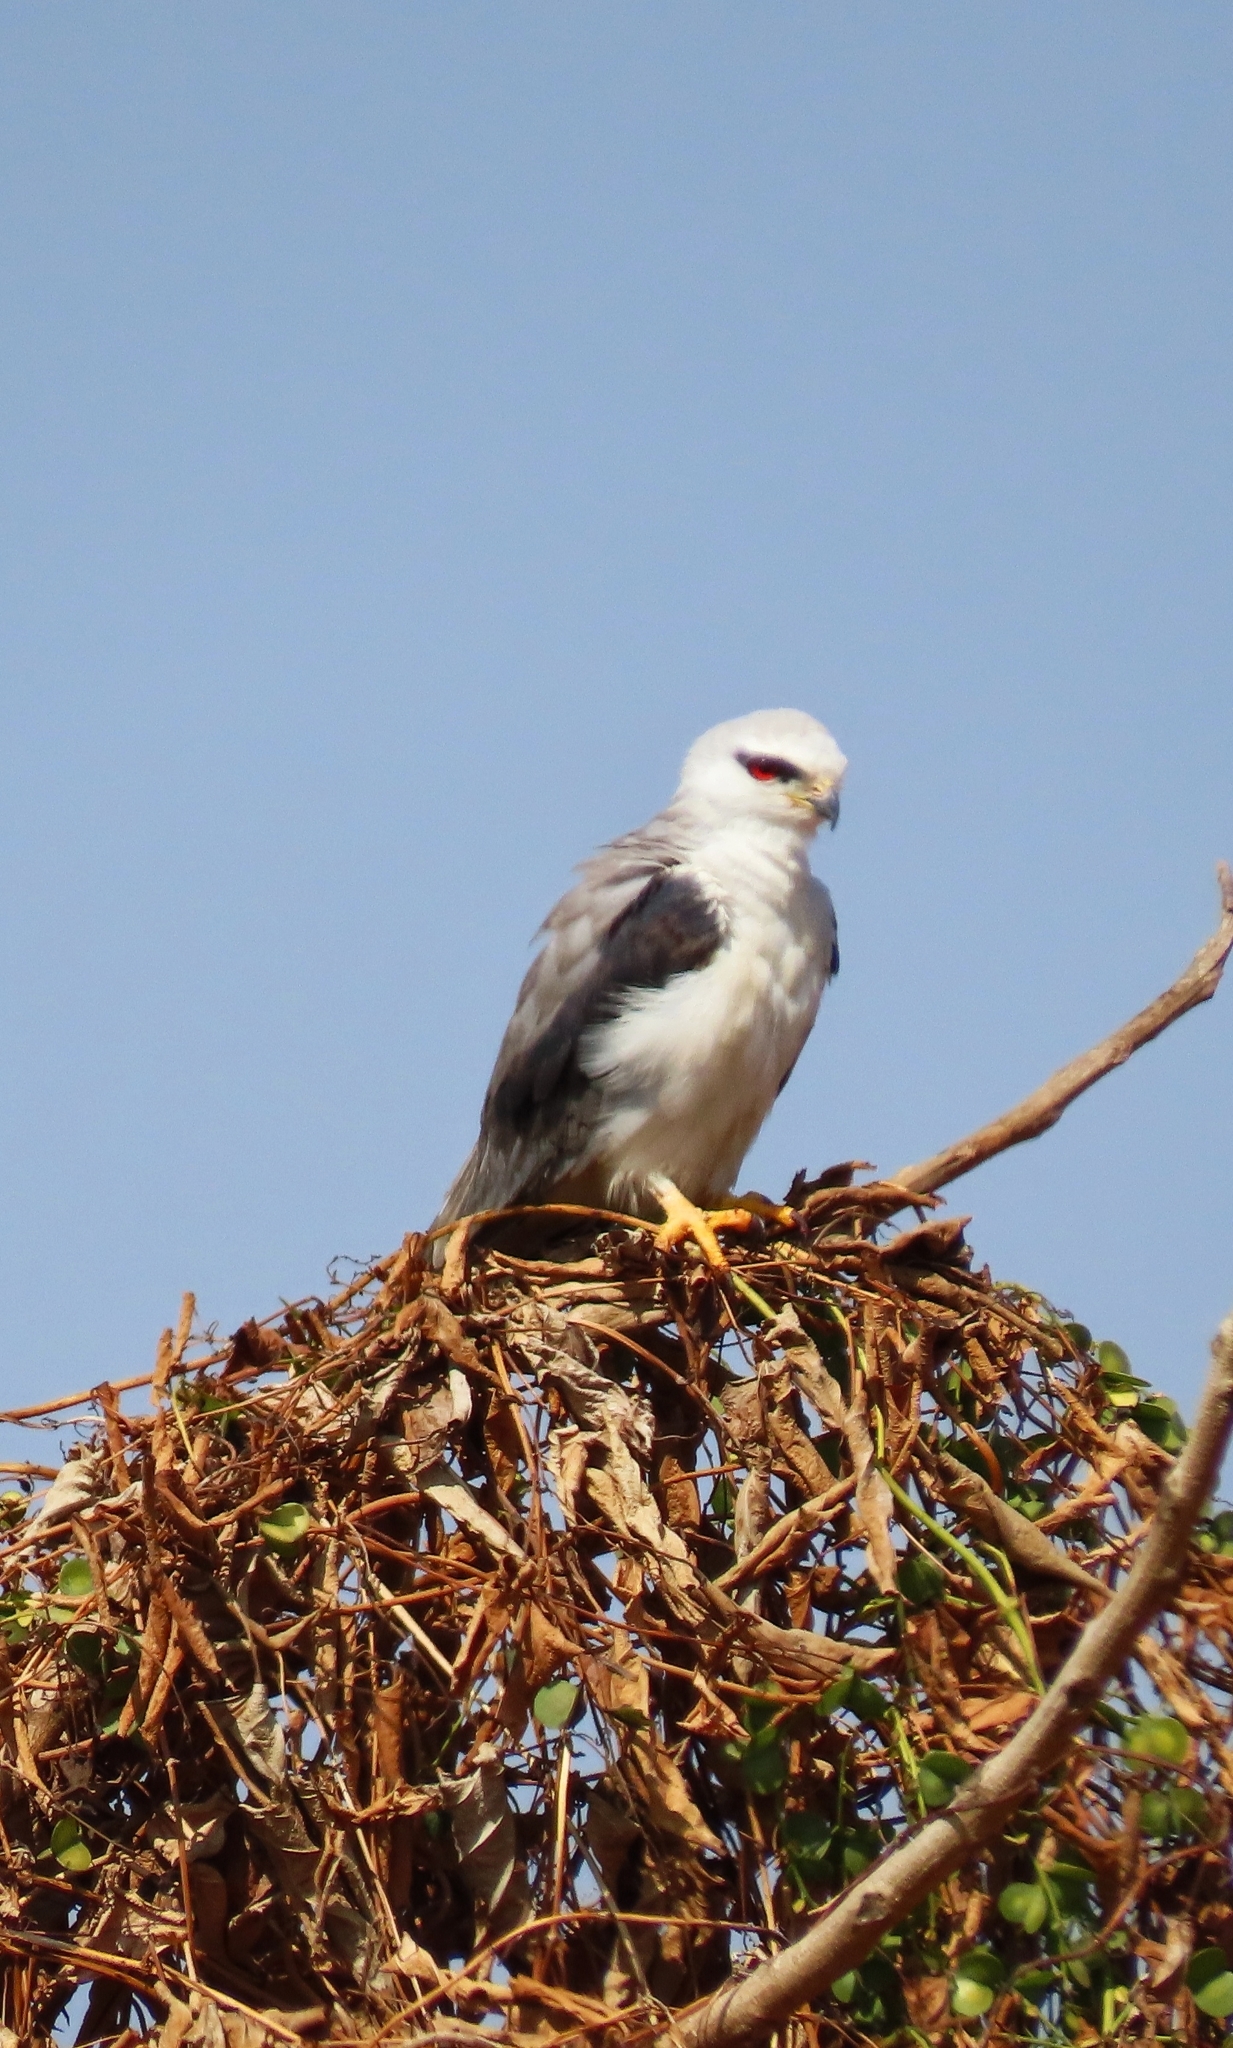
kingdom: Animalia
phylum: Chordata
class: Aves
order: Accipitriformes
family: Accipitridae
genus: Elanus
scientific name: Elanus caeruleus
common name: Black-winged kite
